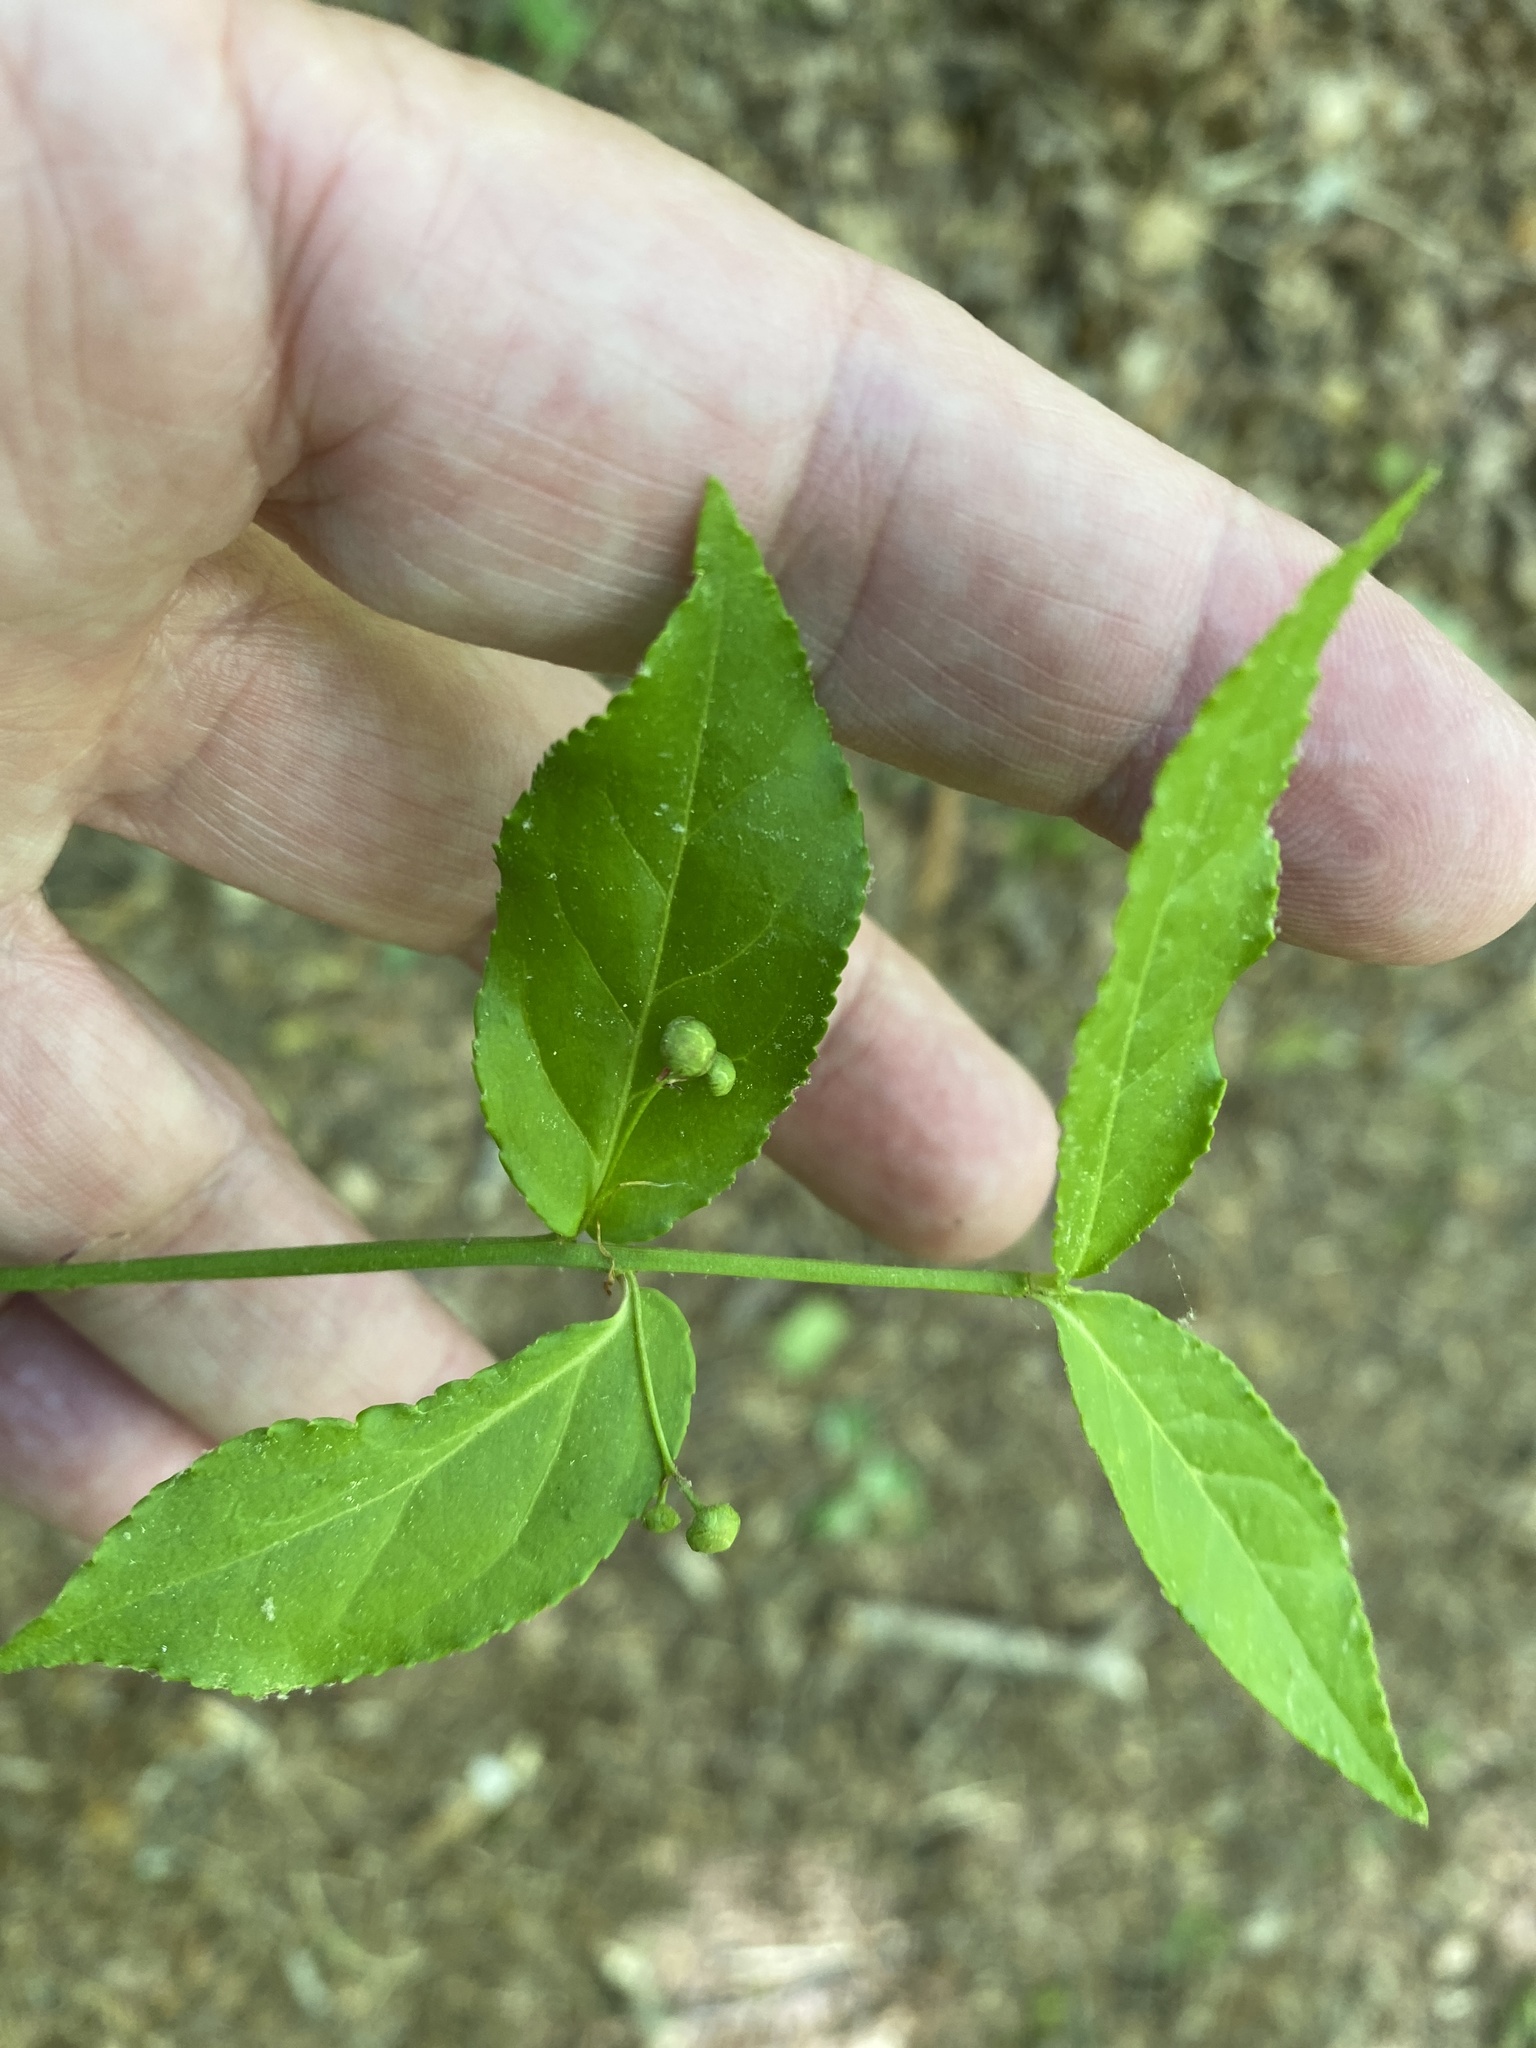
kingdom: Plantae
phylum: Tracheophyta
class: Magnoliopsida
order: Celastrales
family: Celastraceae
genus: Euonymus
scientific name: Euonymus americanus
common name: Bursting-heart
